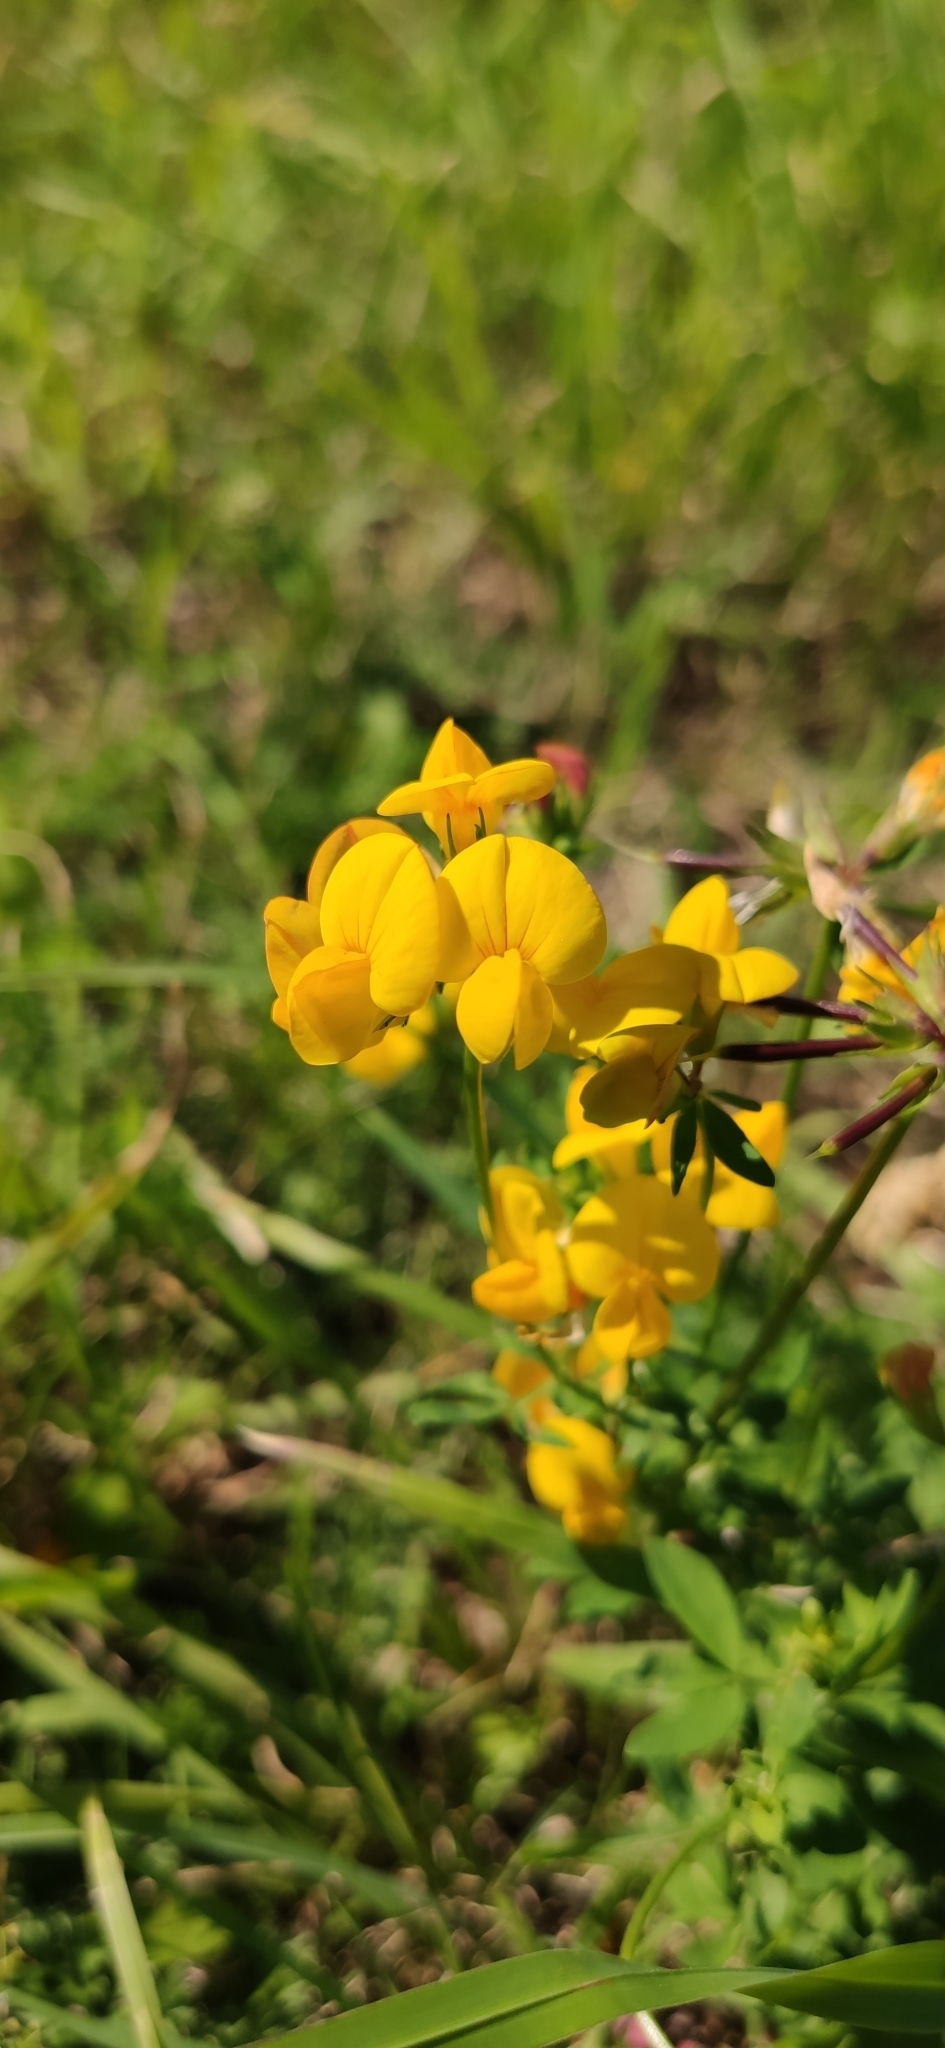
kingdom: Plantae
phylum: Tracheophyta
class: Magnoliopsida
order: Fabales
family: Fabaceae
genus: Lotus
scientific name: Lotus corniculatus
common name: Common bird's-foot-trefoil
